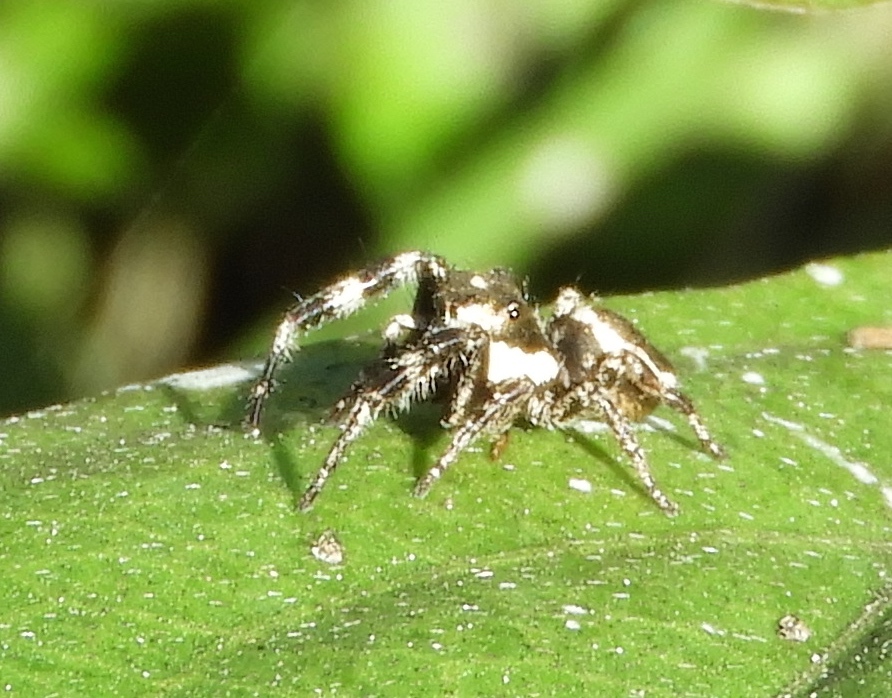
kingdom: Animalia
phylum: Arthropoda
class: Arachnida
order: Araneae
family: Salticidae
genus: Dendryphantes
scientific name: Dendryphantes zygoballoides
